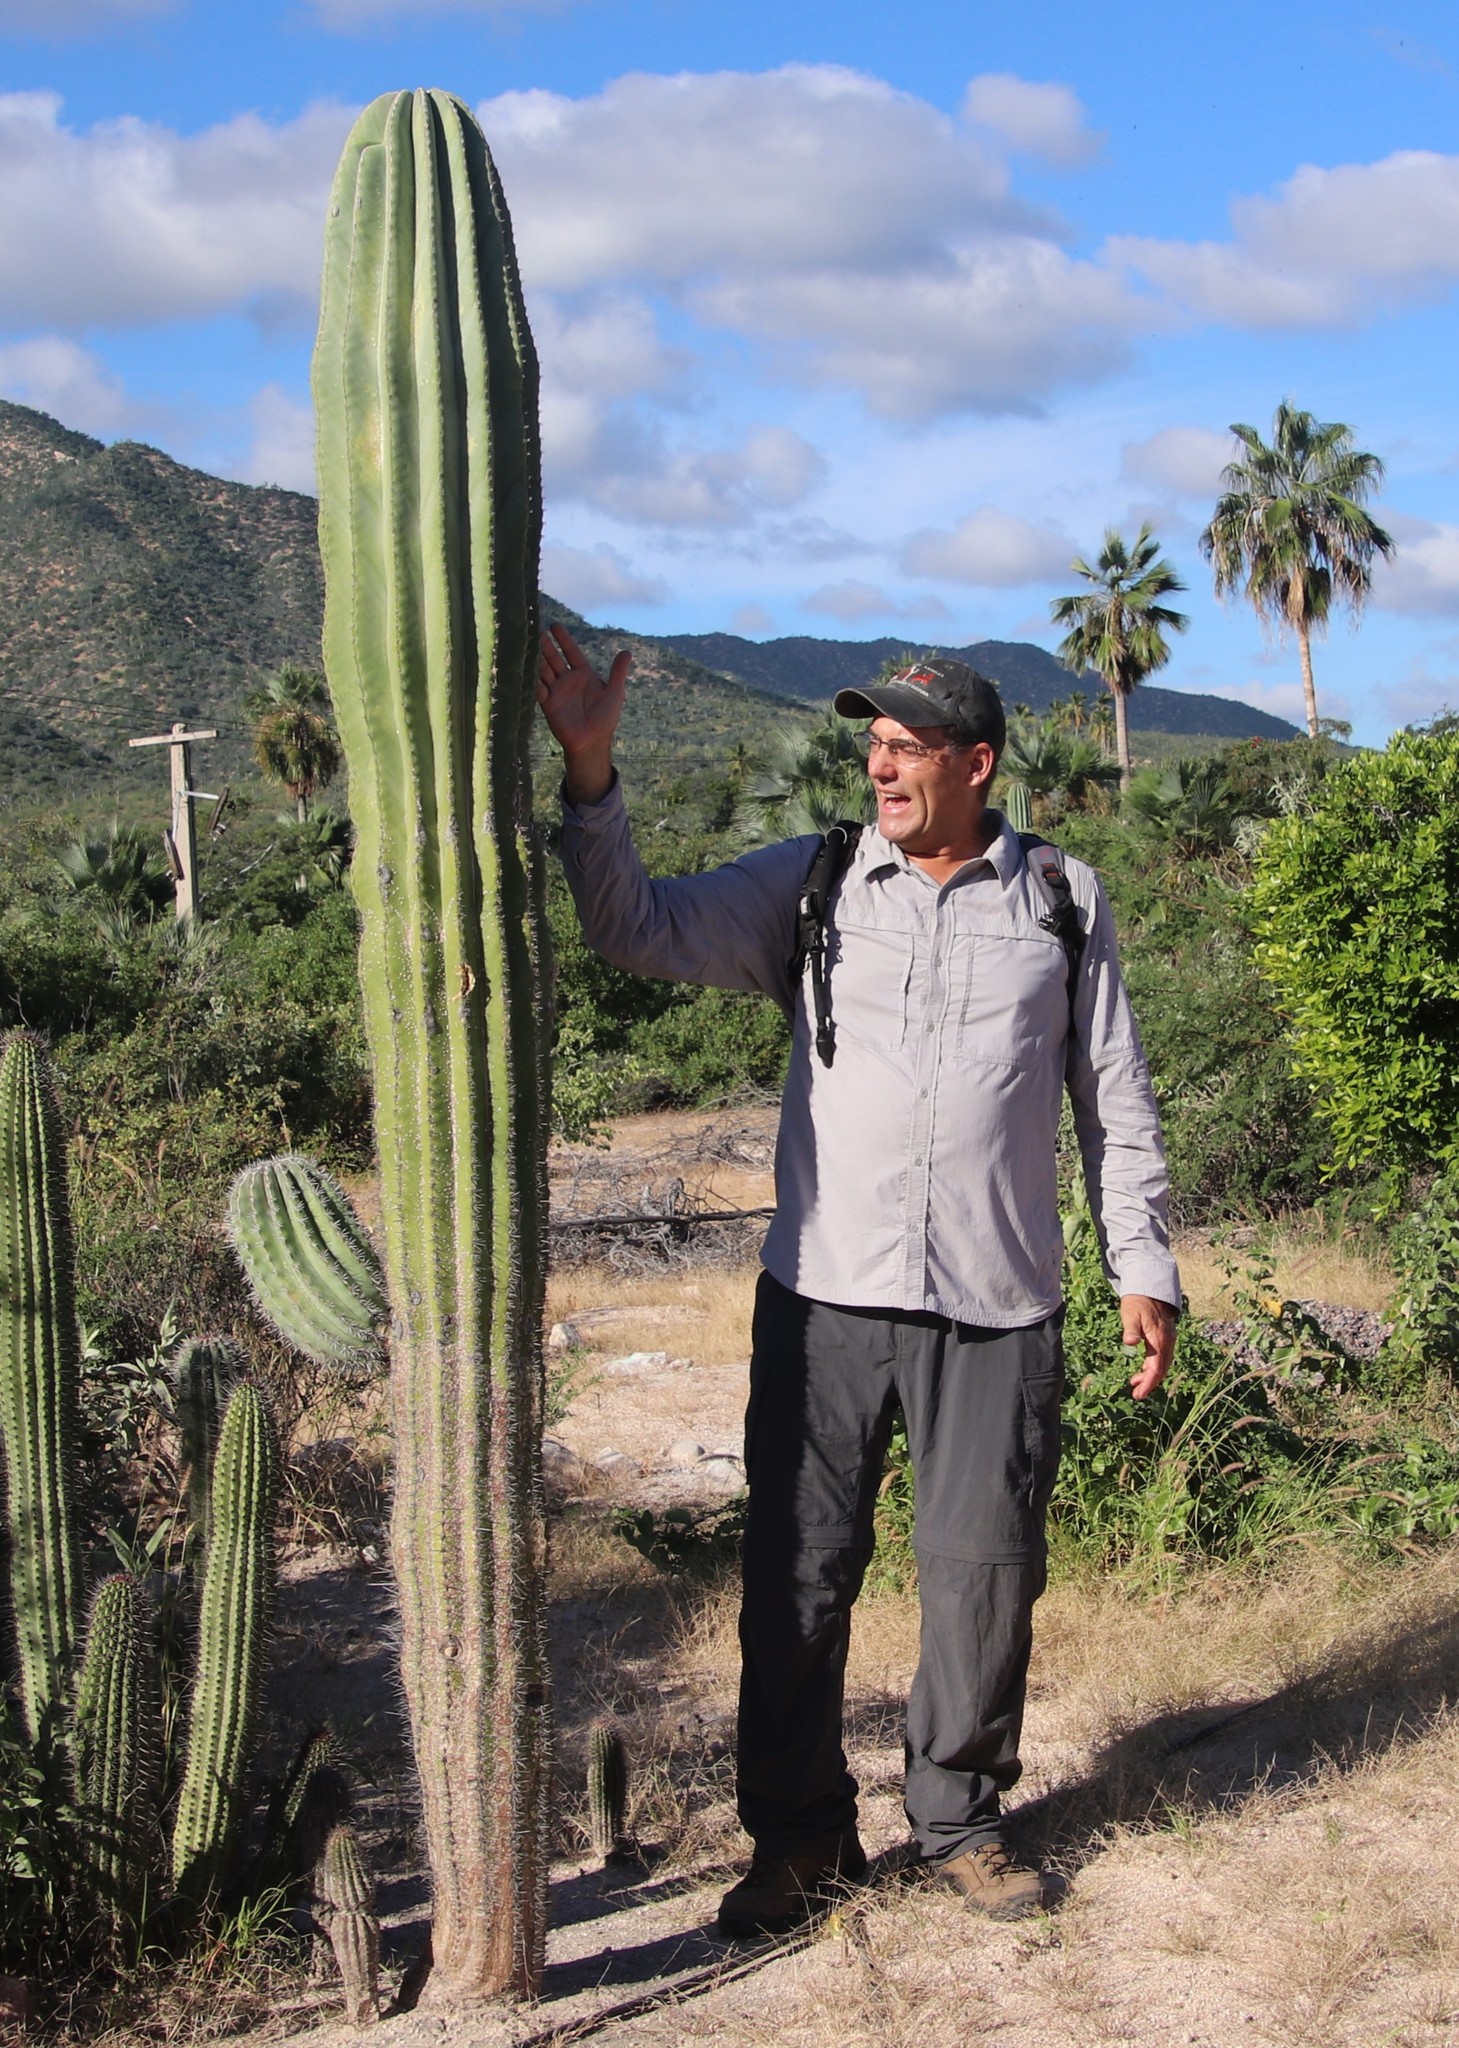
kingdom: Plantae
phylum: Tracheophyta
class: Magnoliopsida
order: Caryophyllales
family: Cactaceae
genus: Pachycereus
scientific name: Pachycereus pringlei
